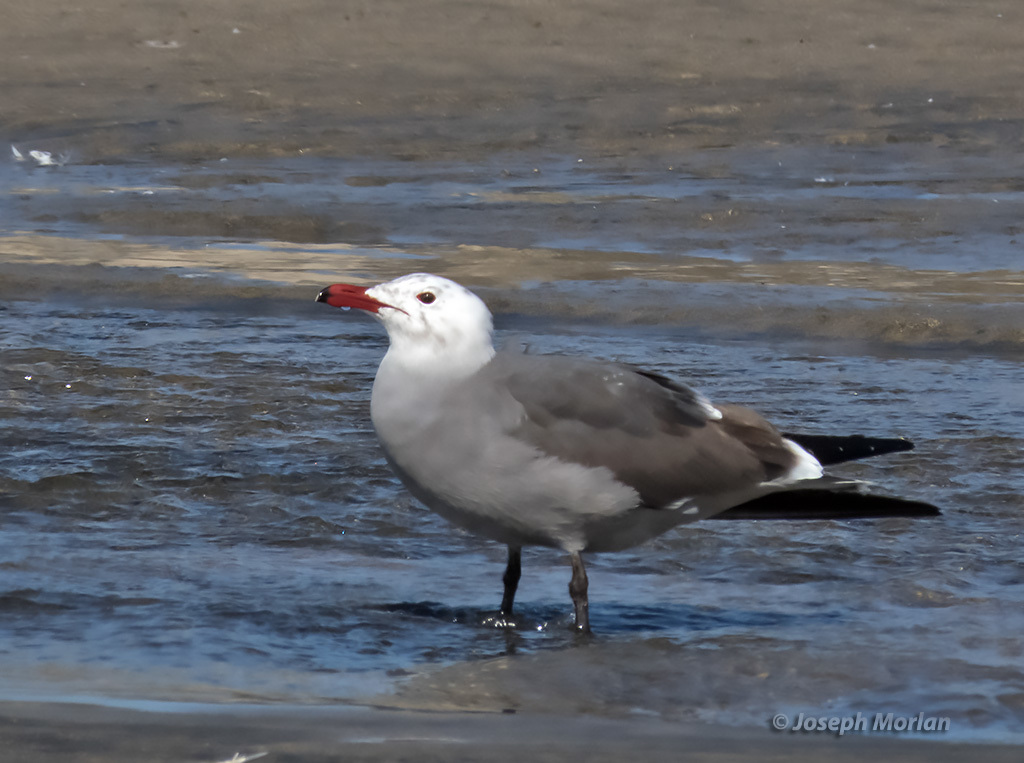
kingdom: Animalia
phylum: Chordata
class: Aves
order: Charadriiformes
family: Laridae
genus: Larus
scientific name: Larus heermanni
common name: Heermann's gull
